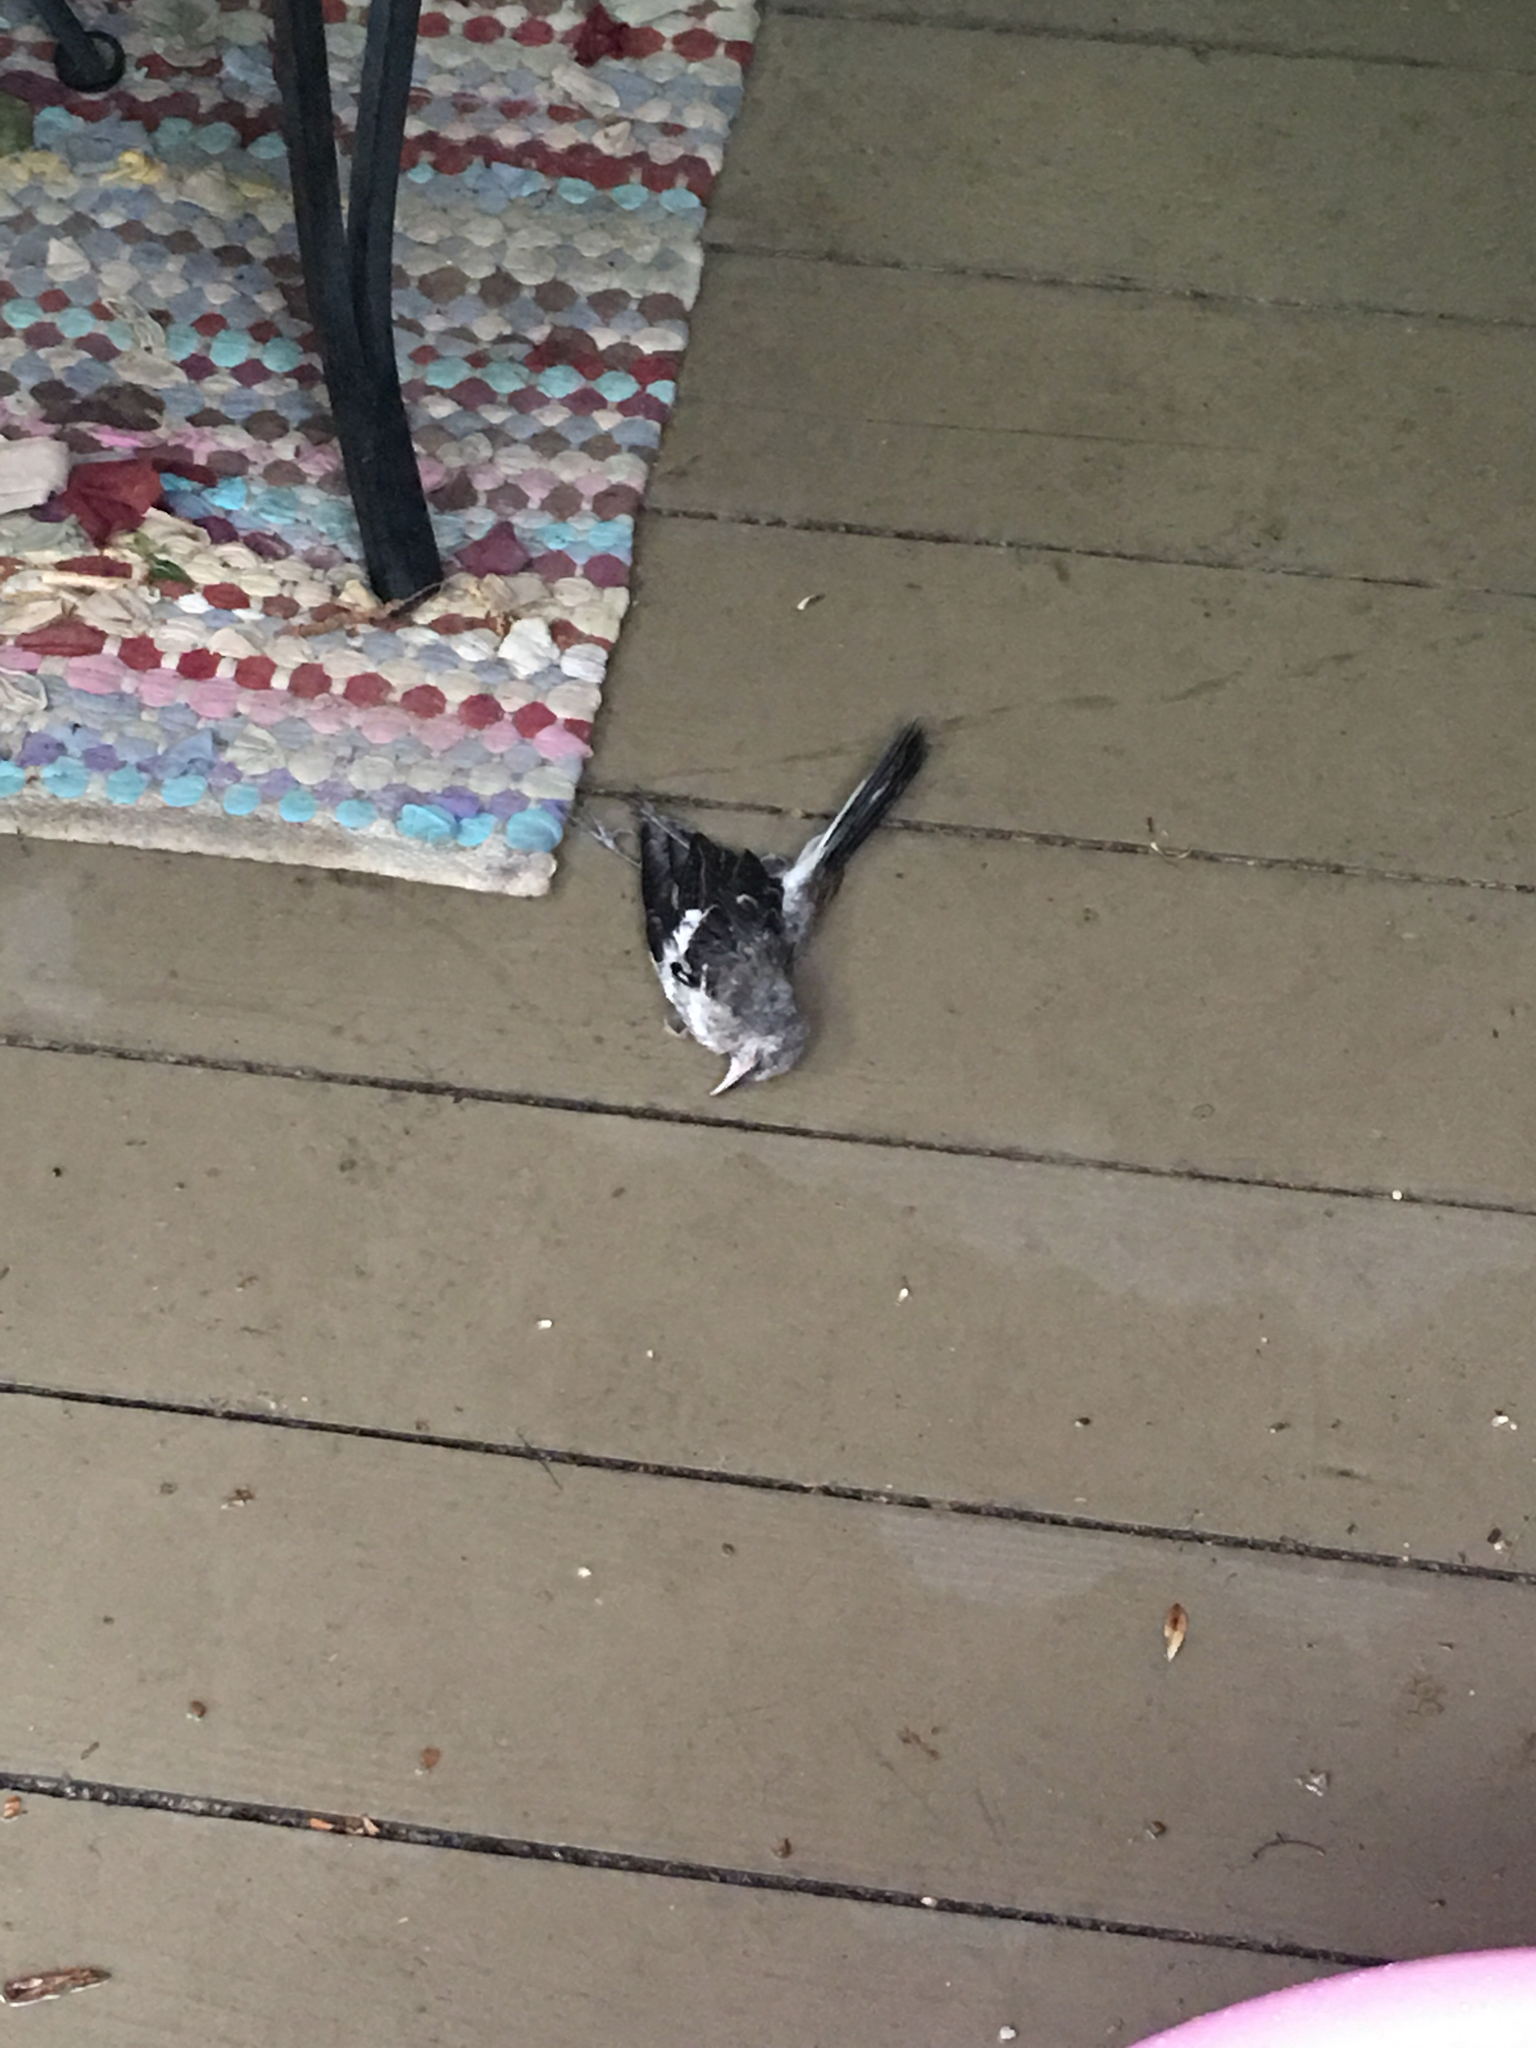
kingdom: Animalia
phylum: Chordata
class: Aves
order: Passeriformes
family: Mimidae
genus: Mimus
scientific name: Mimus polyglottos
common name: Northern mockingbird
